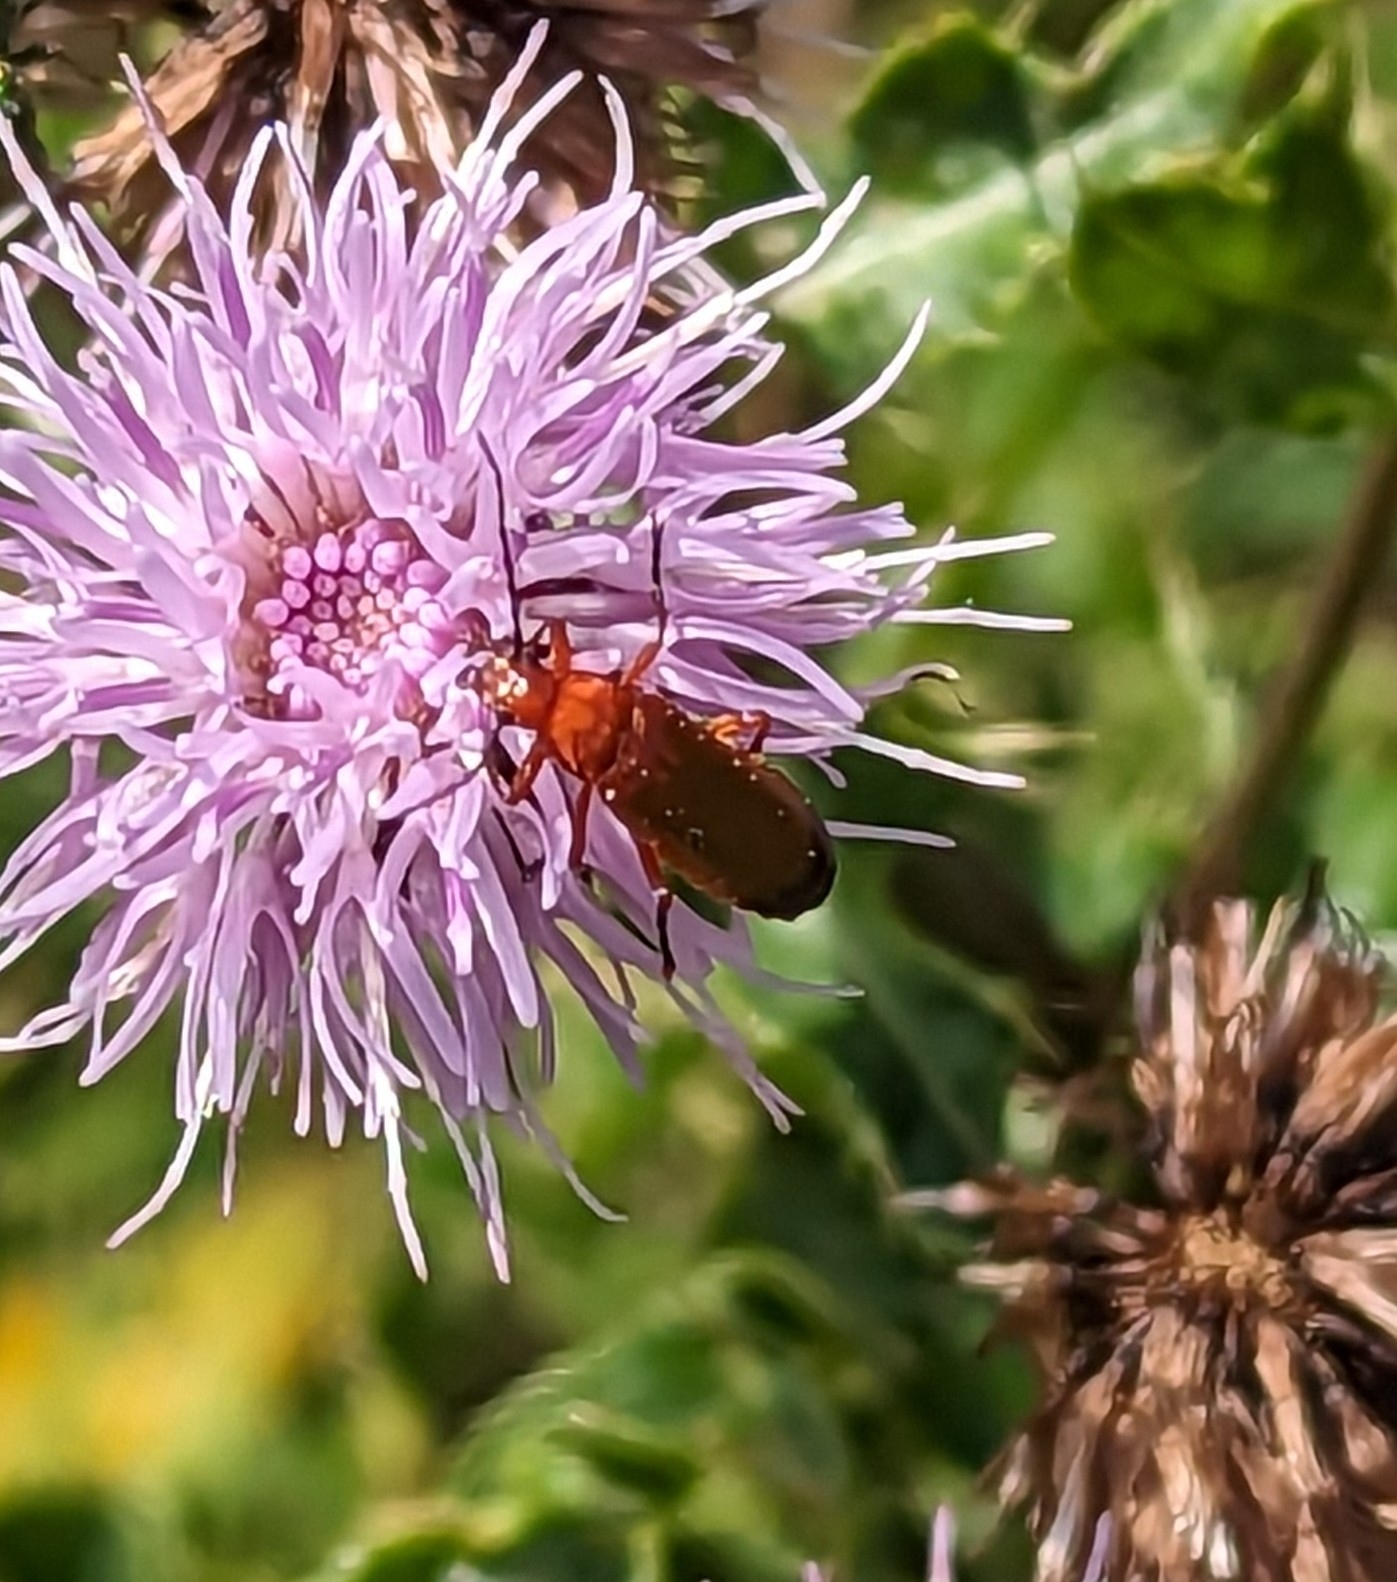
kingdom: Animalia
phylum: Arthropoda
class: Insecta
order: Coleoptera
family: Cantharidae
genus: Rhagonycha
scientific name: Rhagonycha fulva
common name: Common red soldier beetle
